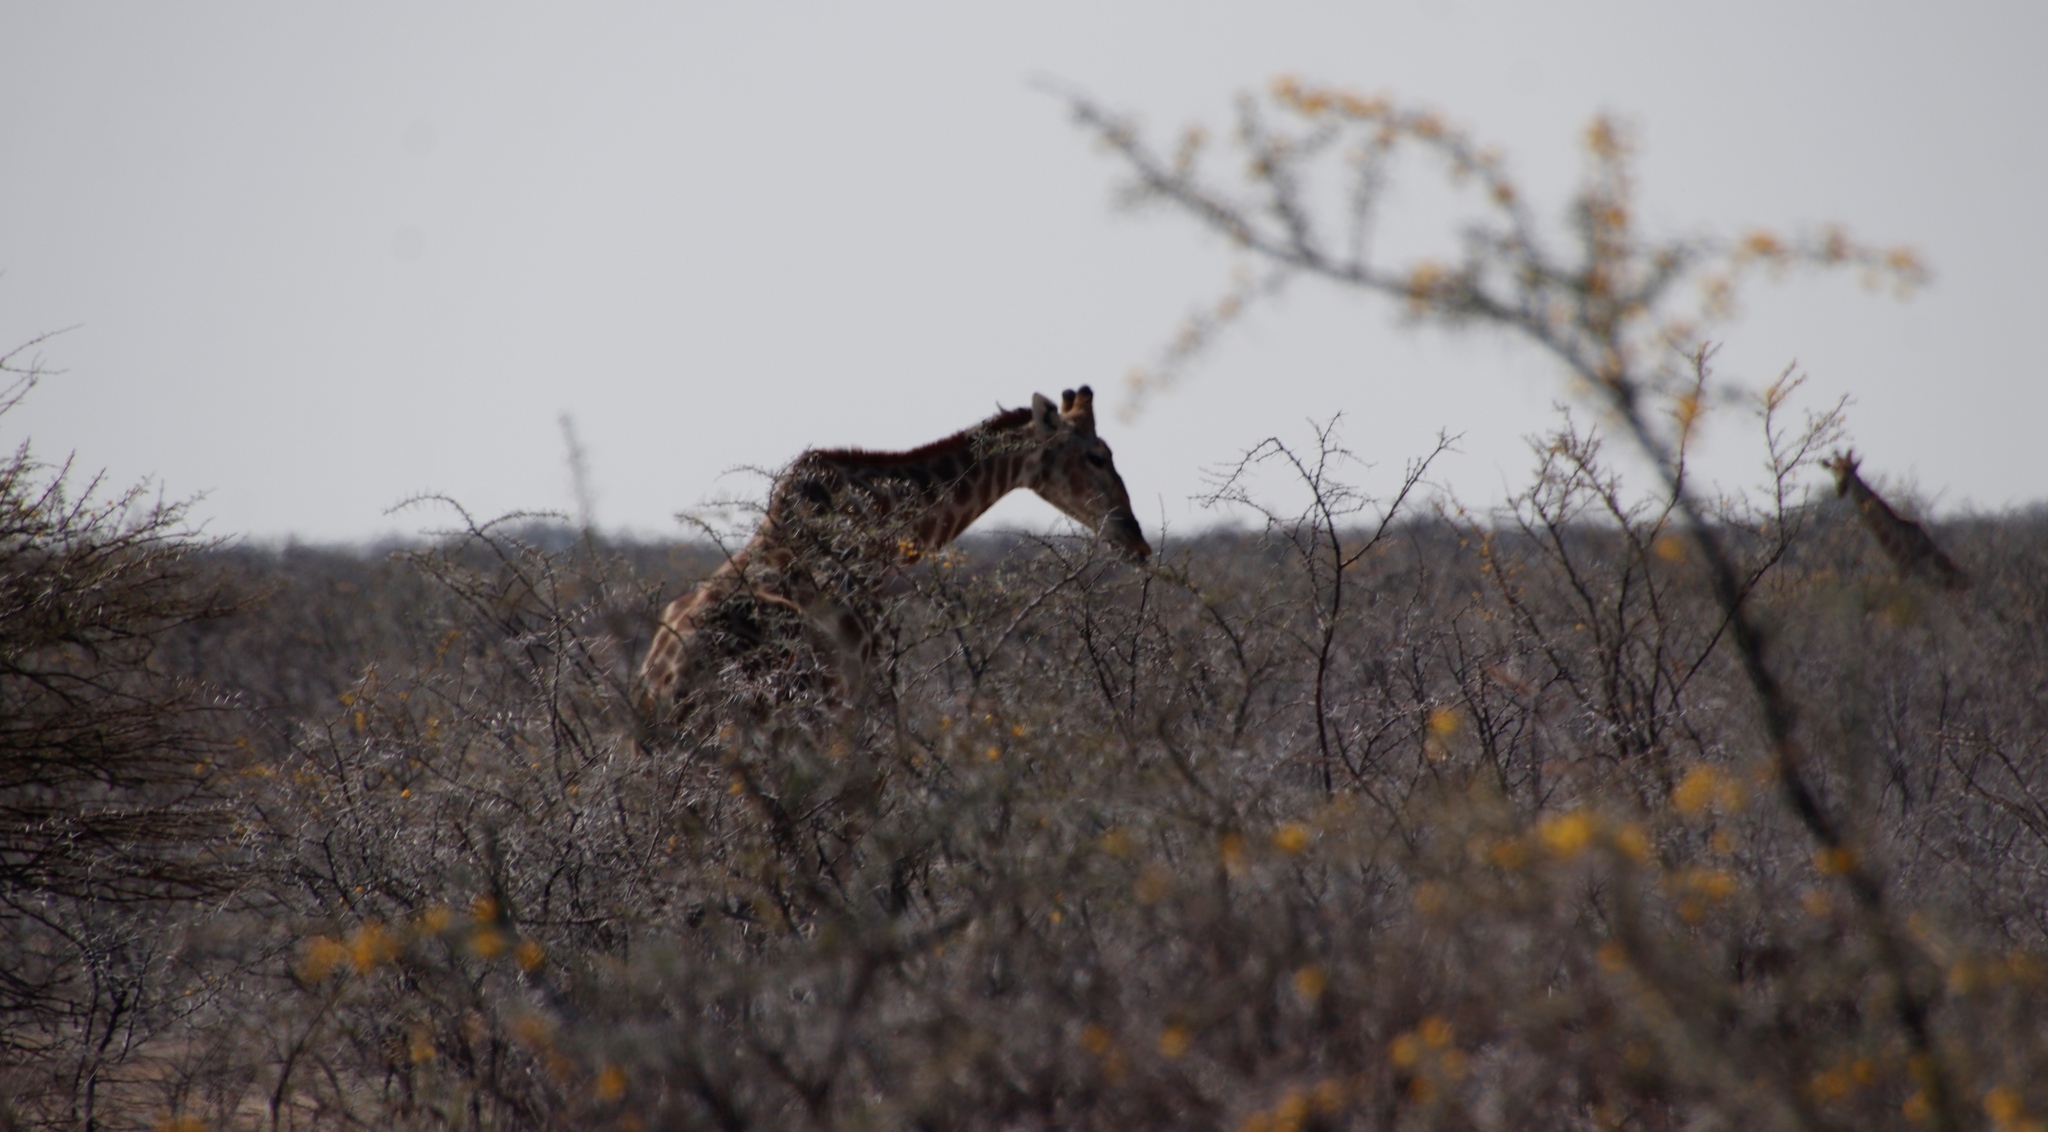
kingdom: Animalia
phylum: Chordata
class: Mammalia
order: Artiodactyla
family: Giraffidae
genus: Giraffa
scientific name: Giraffa giraffa
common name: Southern giraffe
